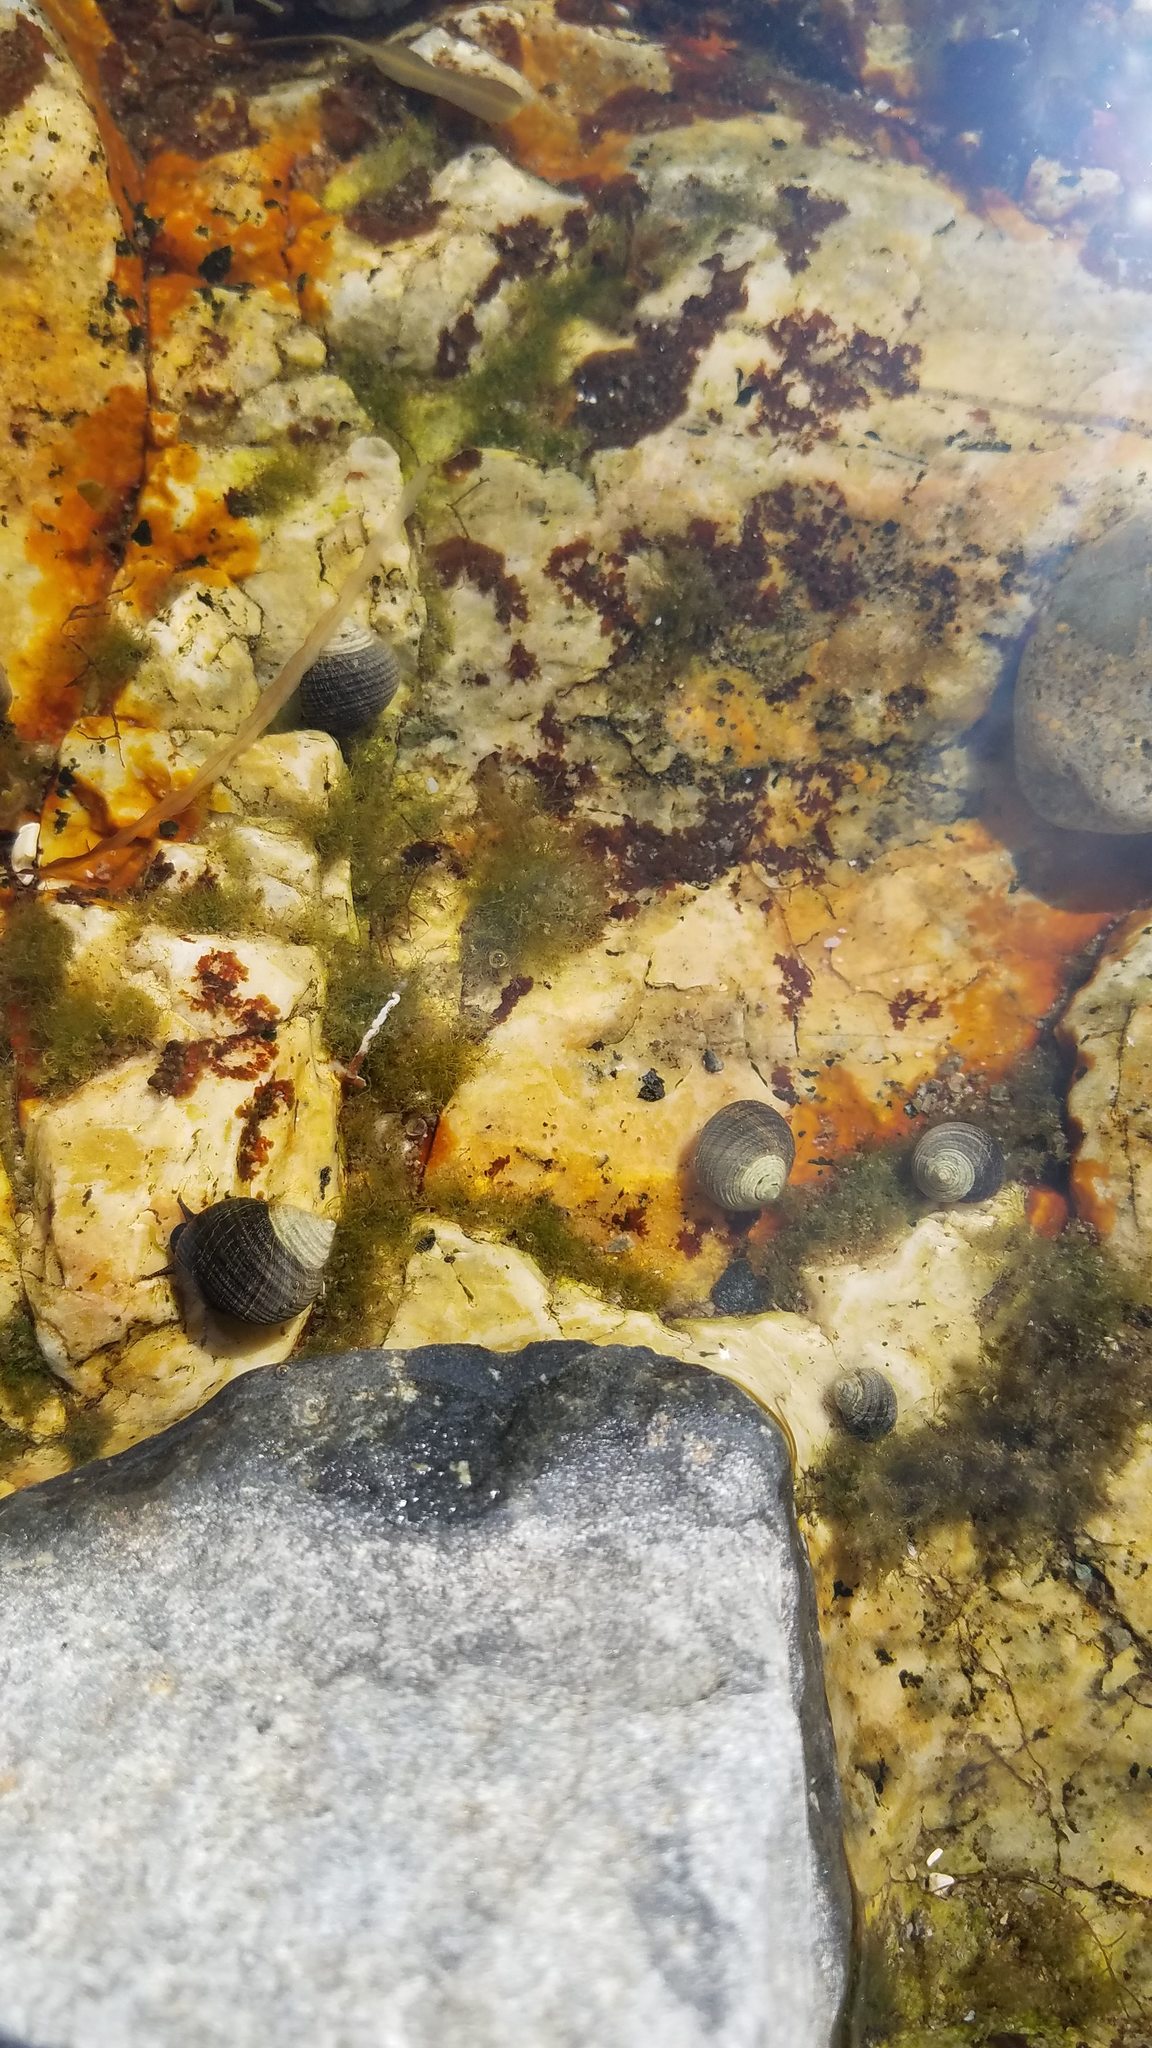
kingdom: Animalia
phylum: Mollusca
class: Gastropoda
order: Littorinimorpha
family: Littorinidae
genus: Littorina
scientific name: Littorina littorea
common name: Common periwinkle
